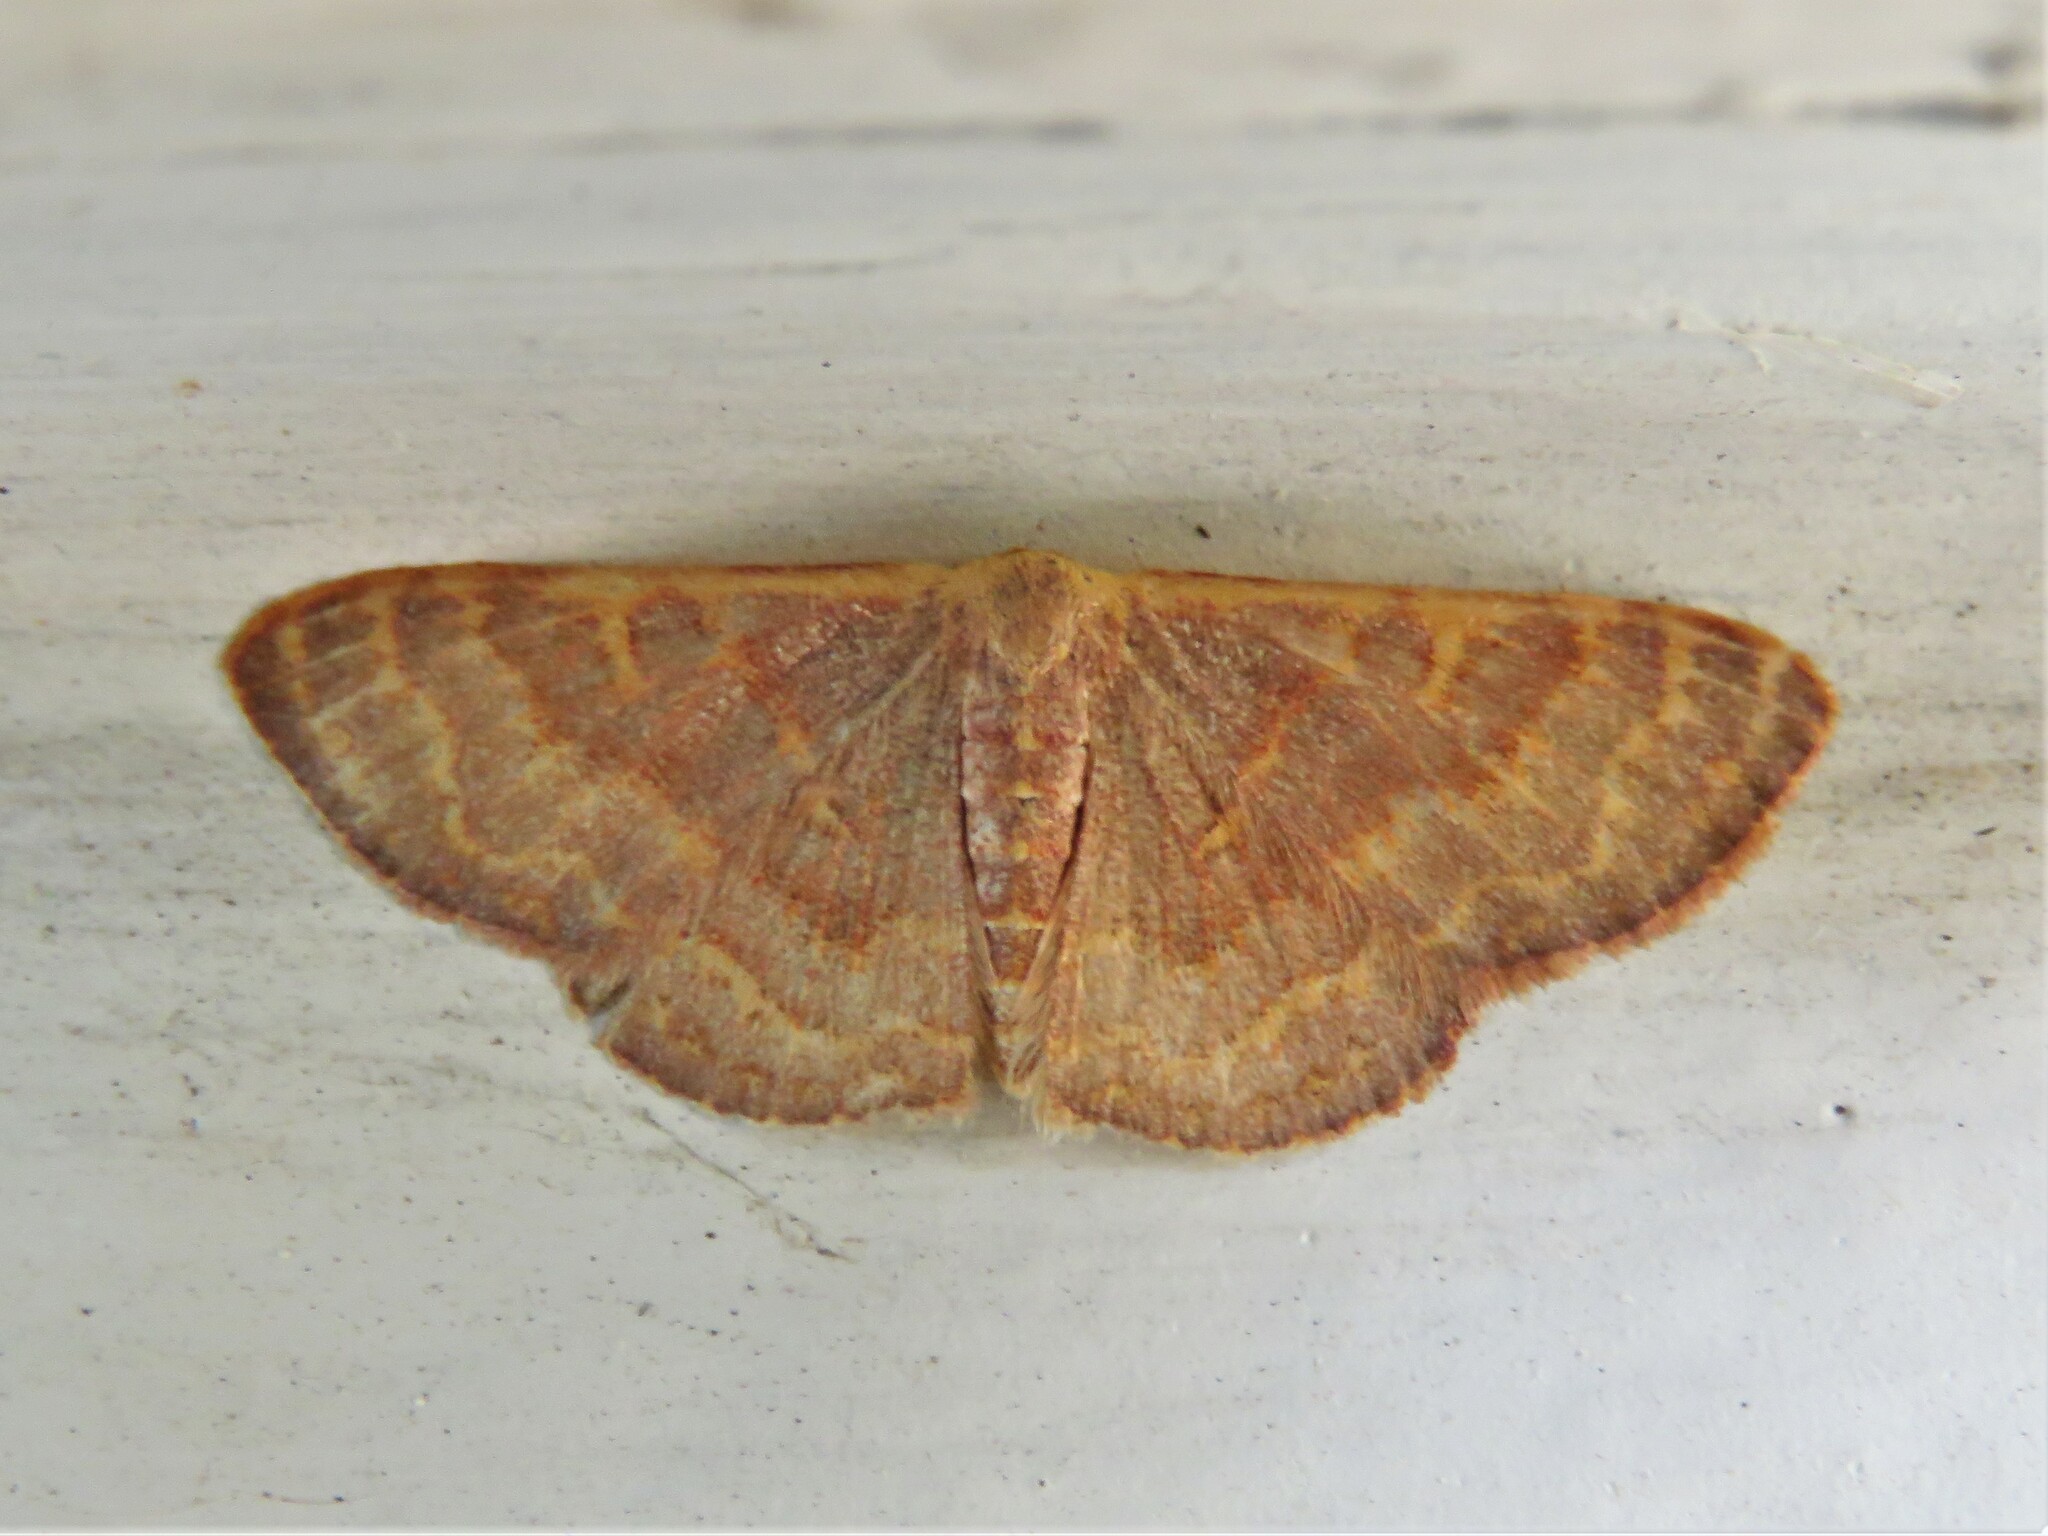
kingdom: Animalia
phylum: Arthropoda
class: Insecta
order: Lepidoptera
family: Geometridae
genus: Leptostales
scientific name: Leptostales pannaria
